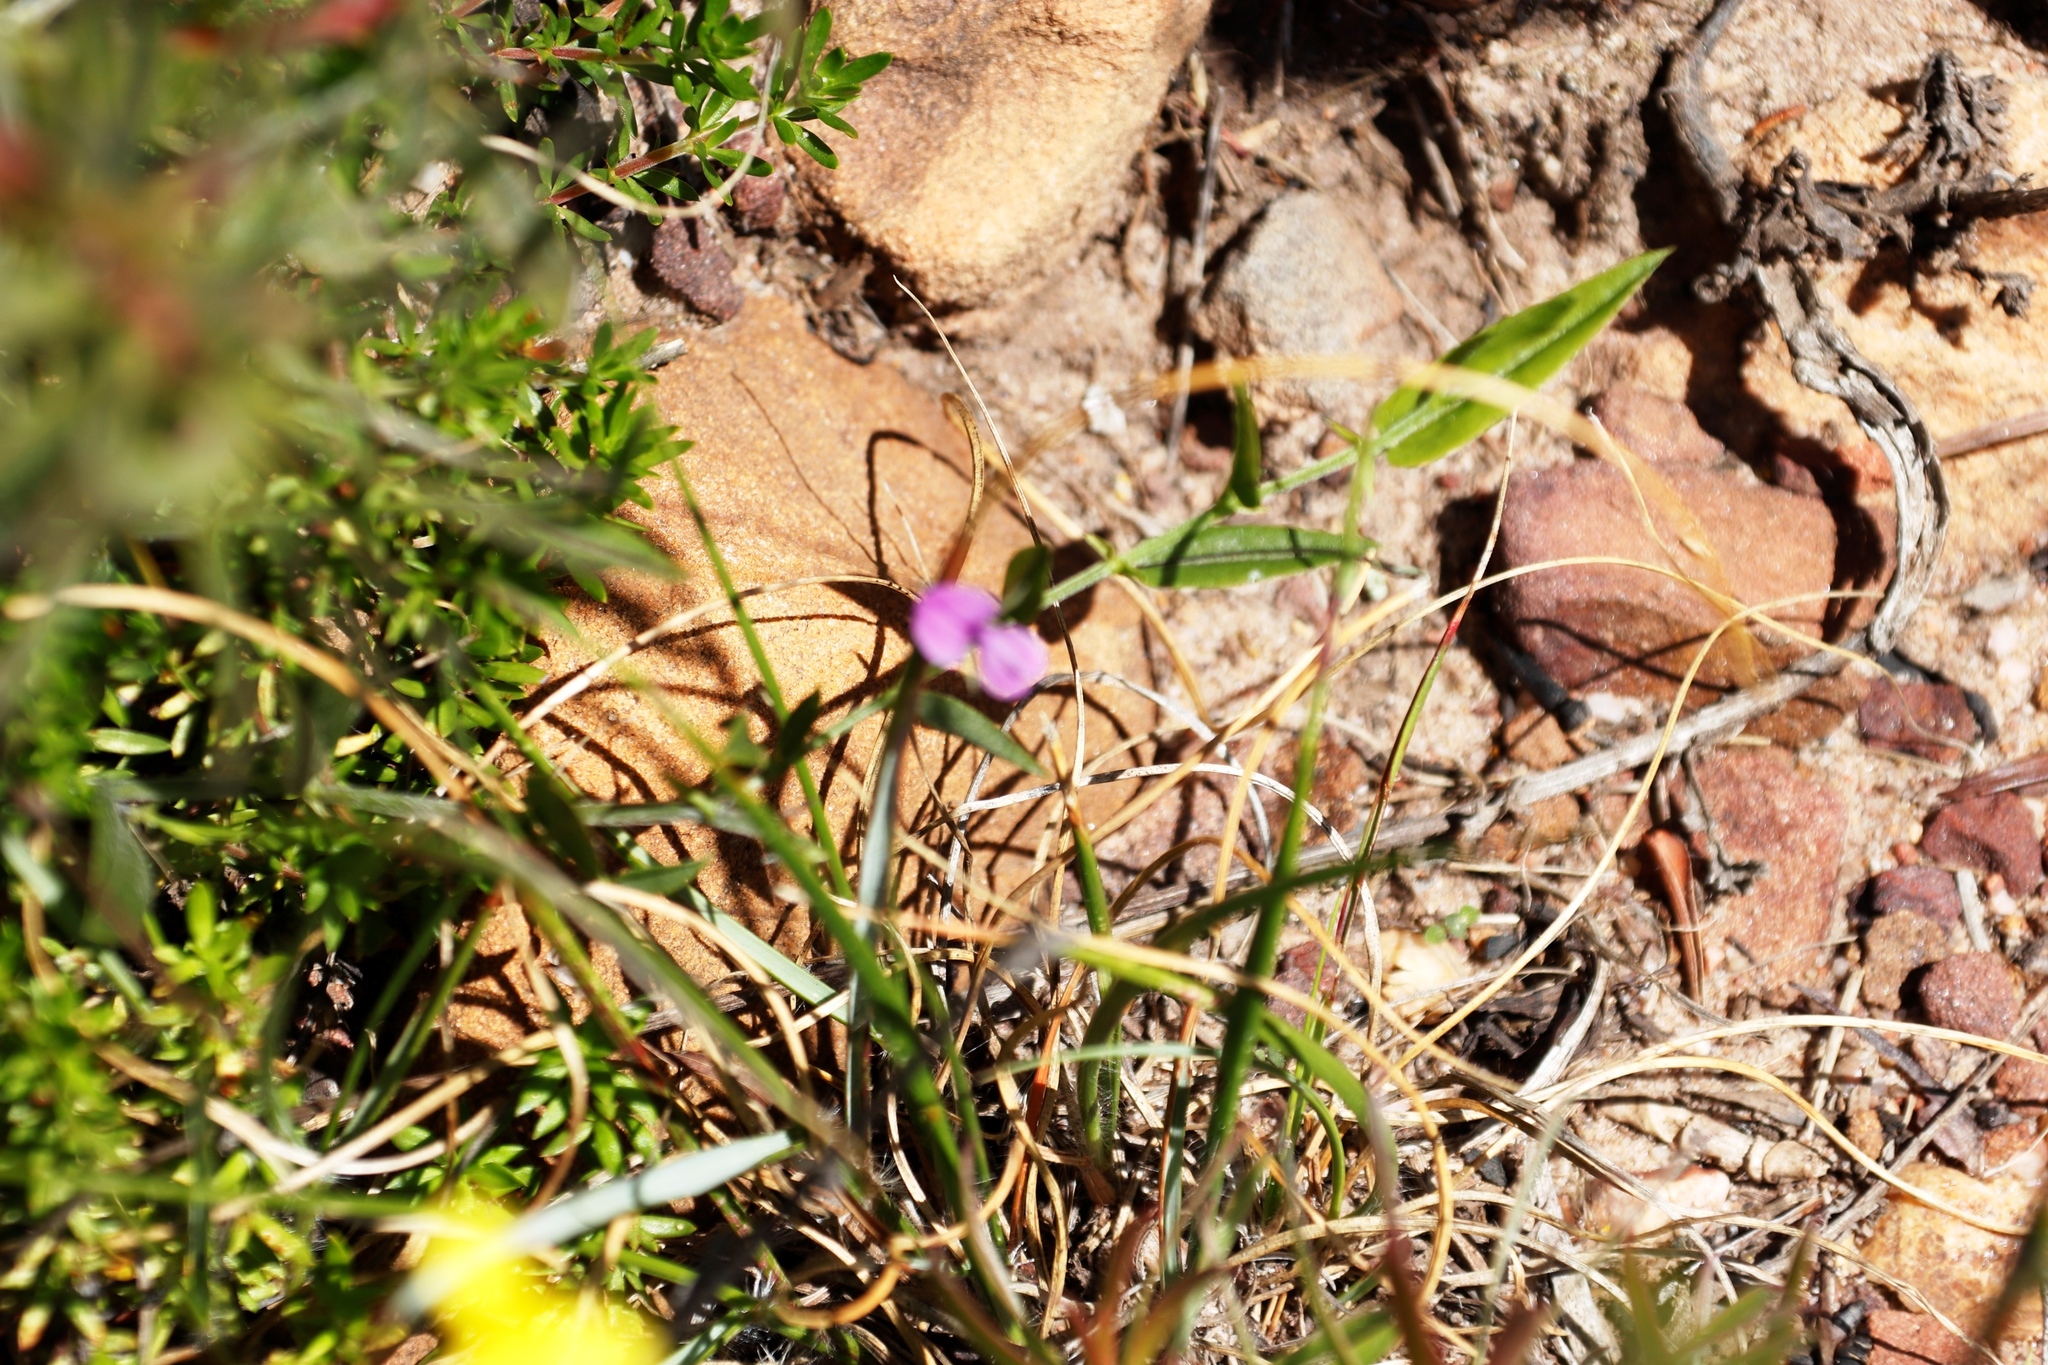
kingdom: Plantae
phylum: Tracheophyta
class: Magnoliopsida
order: Fabales
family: Fabaceae
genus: Psoralea
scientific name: Psoralea laxa
